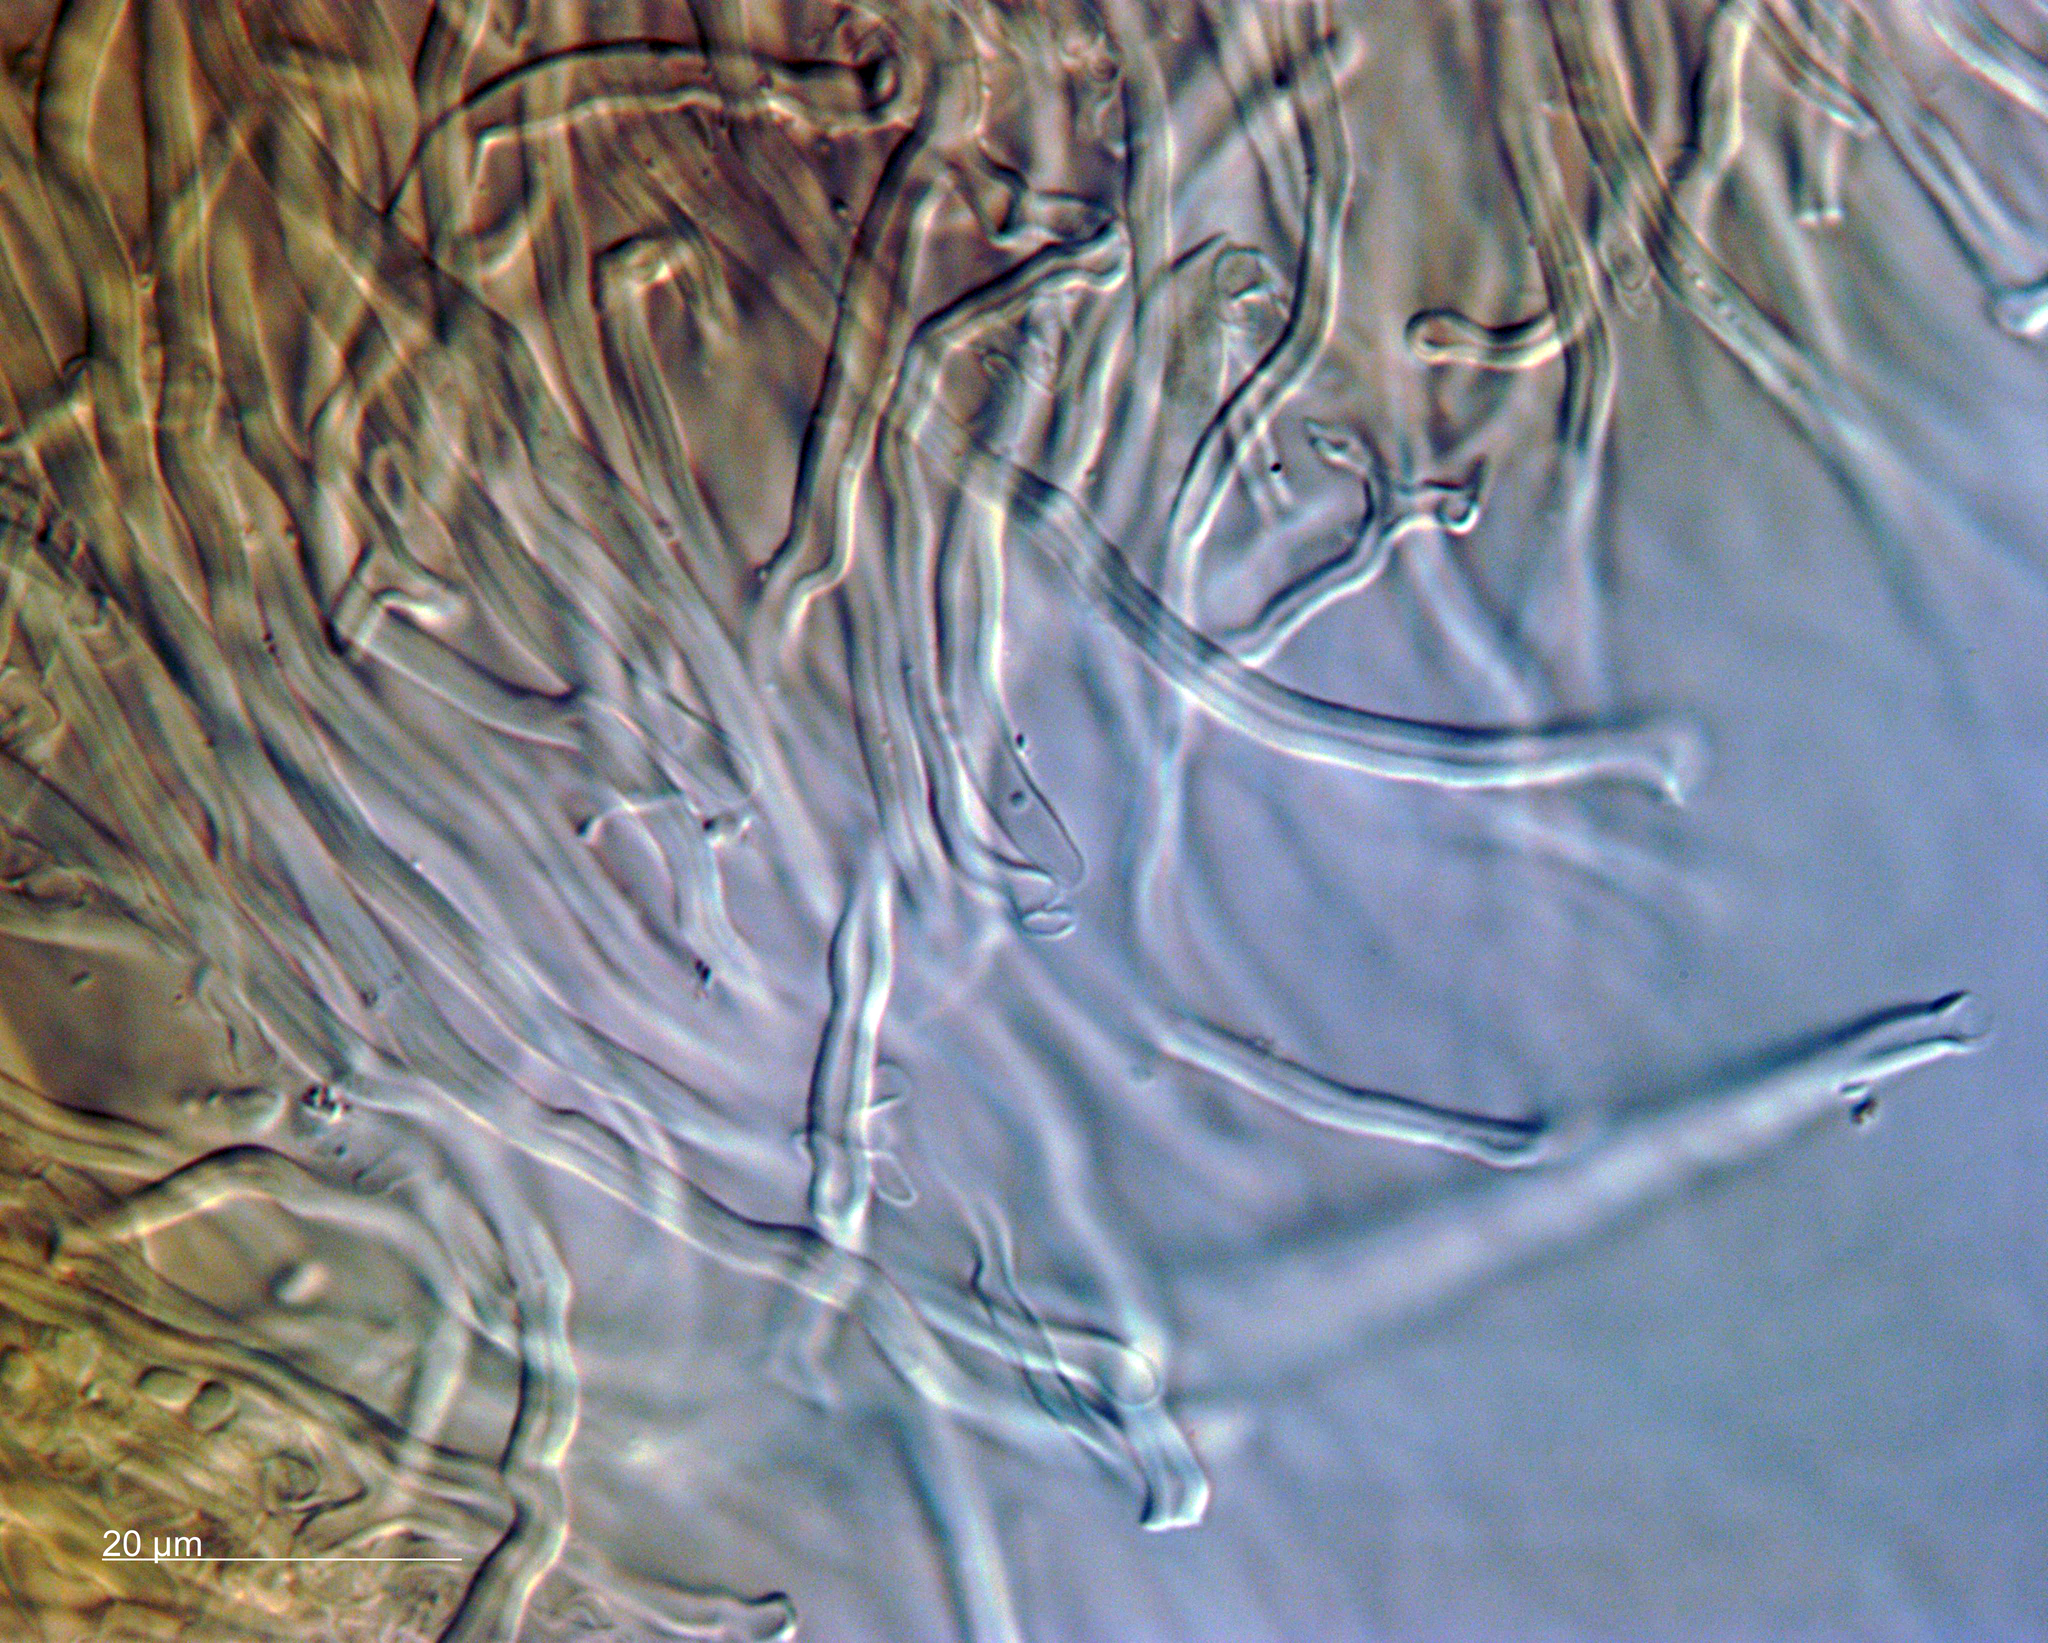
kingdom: Fungi
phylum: Basidiomycota
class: Agaricomycetes
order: Polyporales
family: Steccherinaceae
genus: Steccherinum
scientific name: Steccherinum resupinatum
